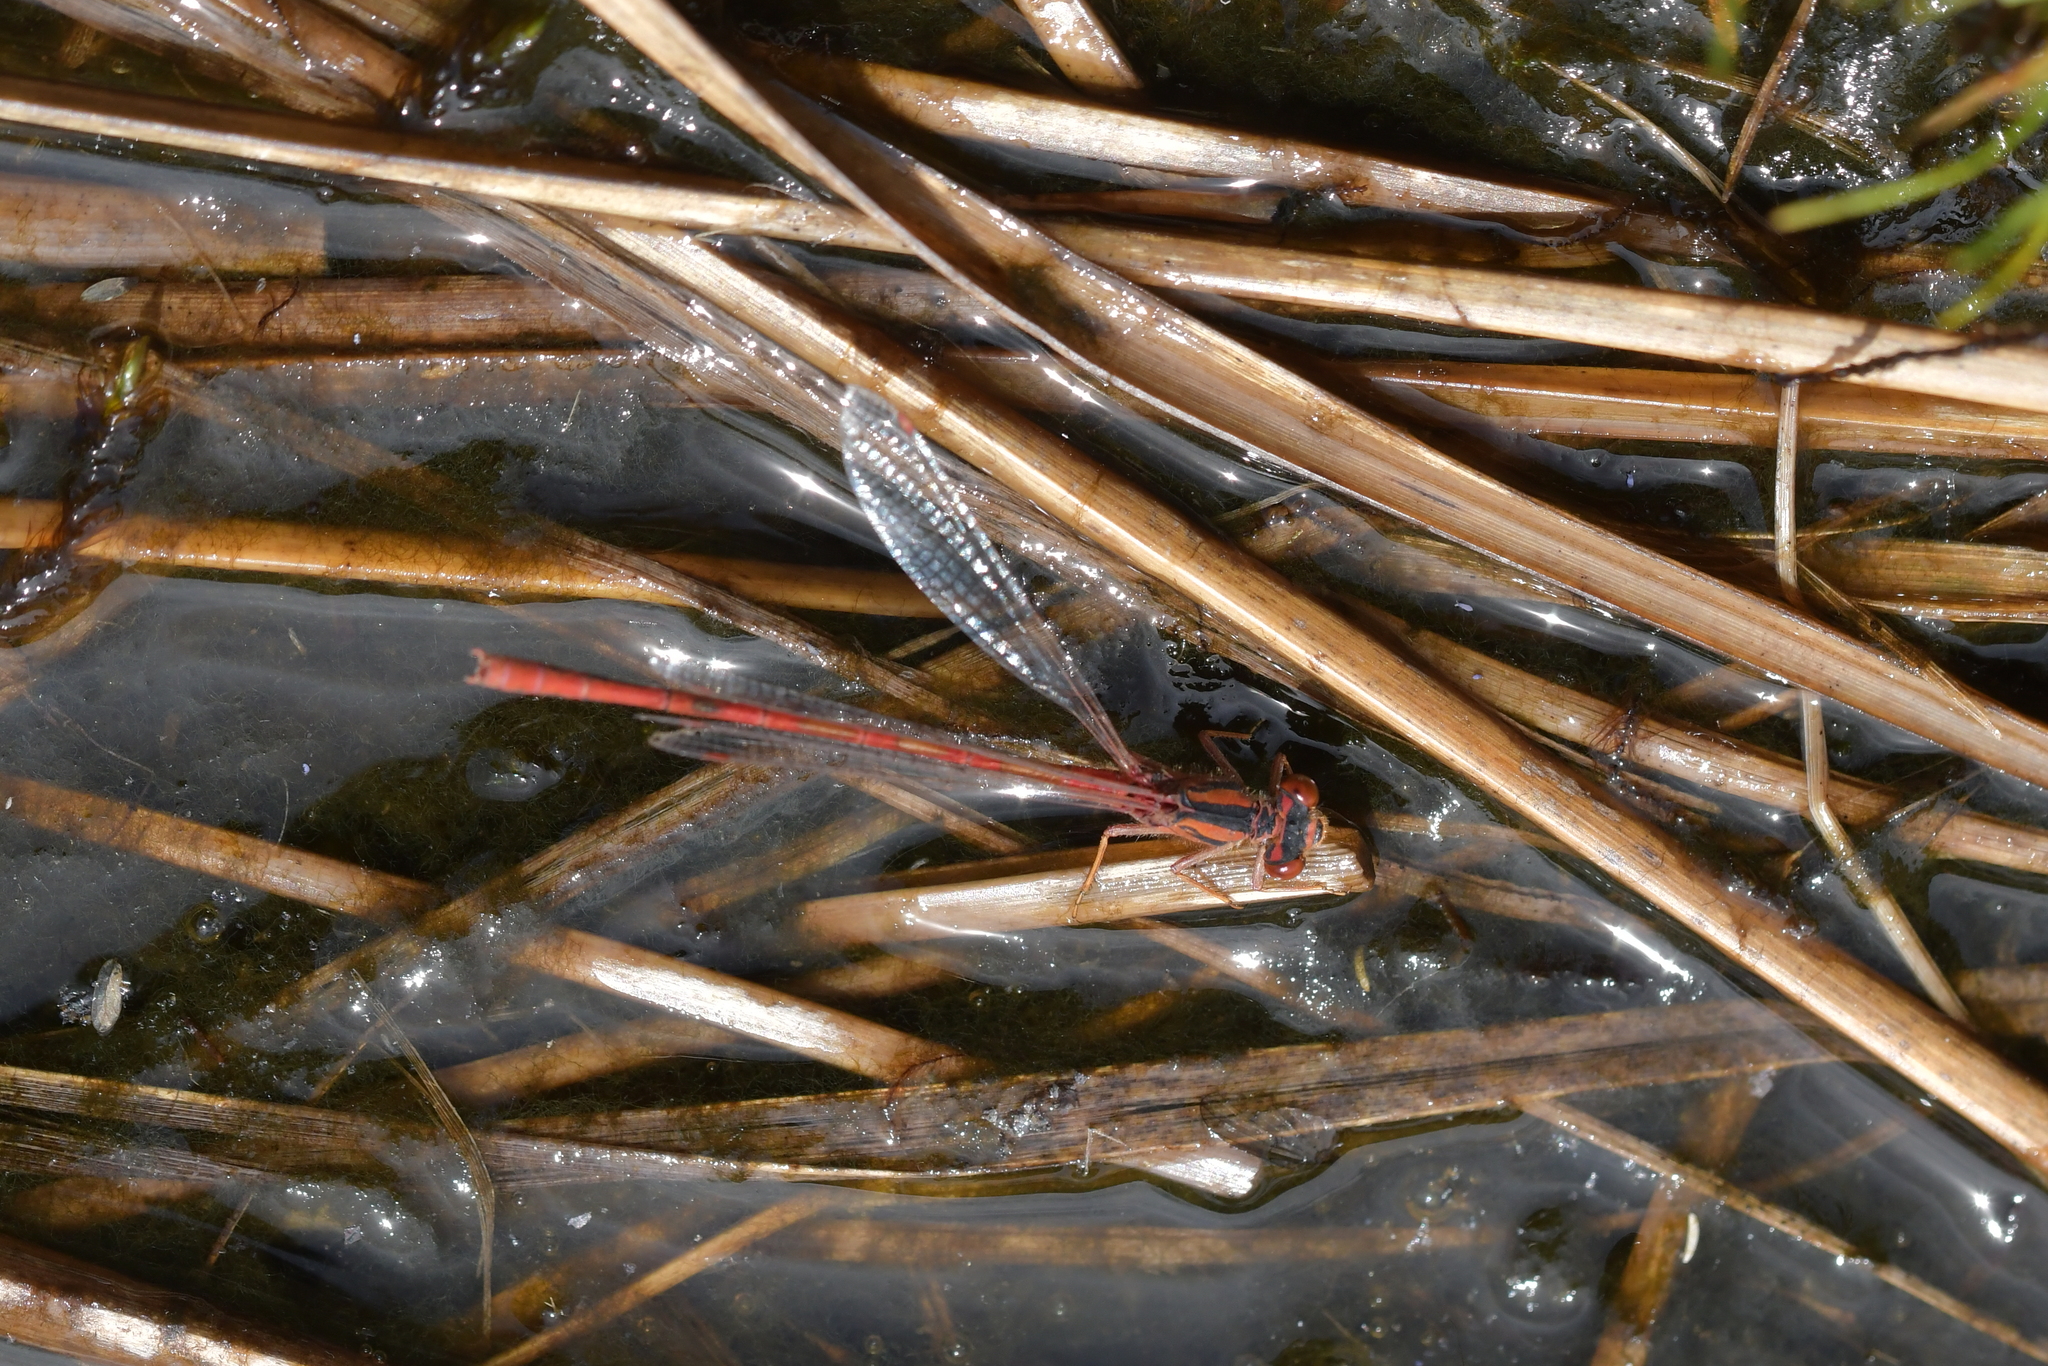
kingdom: Animalia
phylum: Arthropoda
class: Insecta
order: Odonata
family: Coenagrionidae
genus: Xanthocnemis
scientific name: Xanthocnemis zealandica
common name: Common redcoat damselfly
